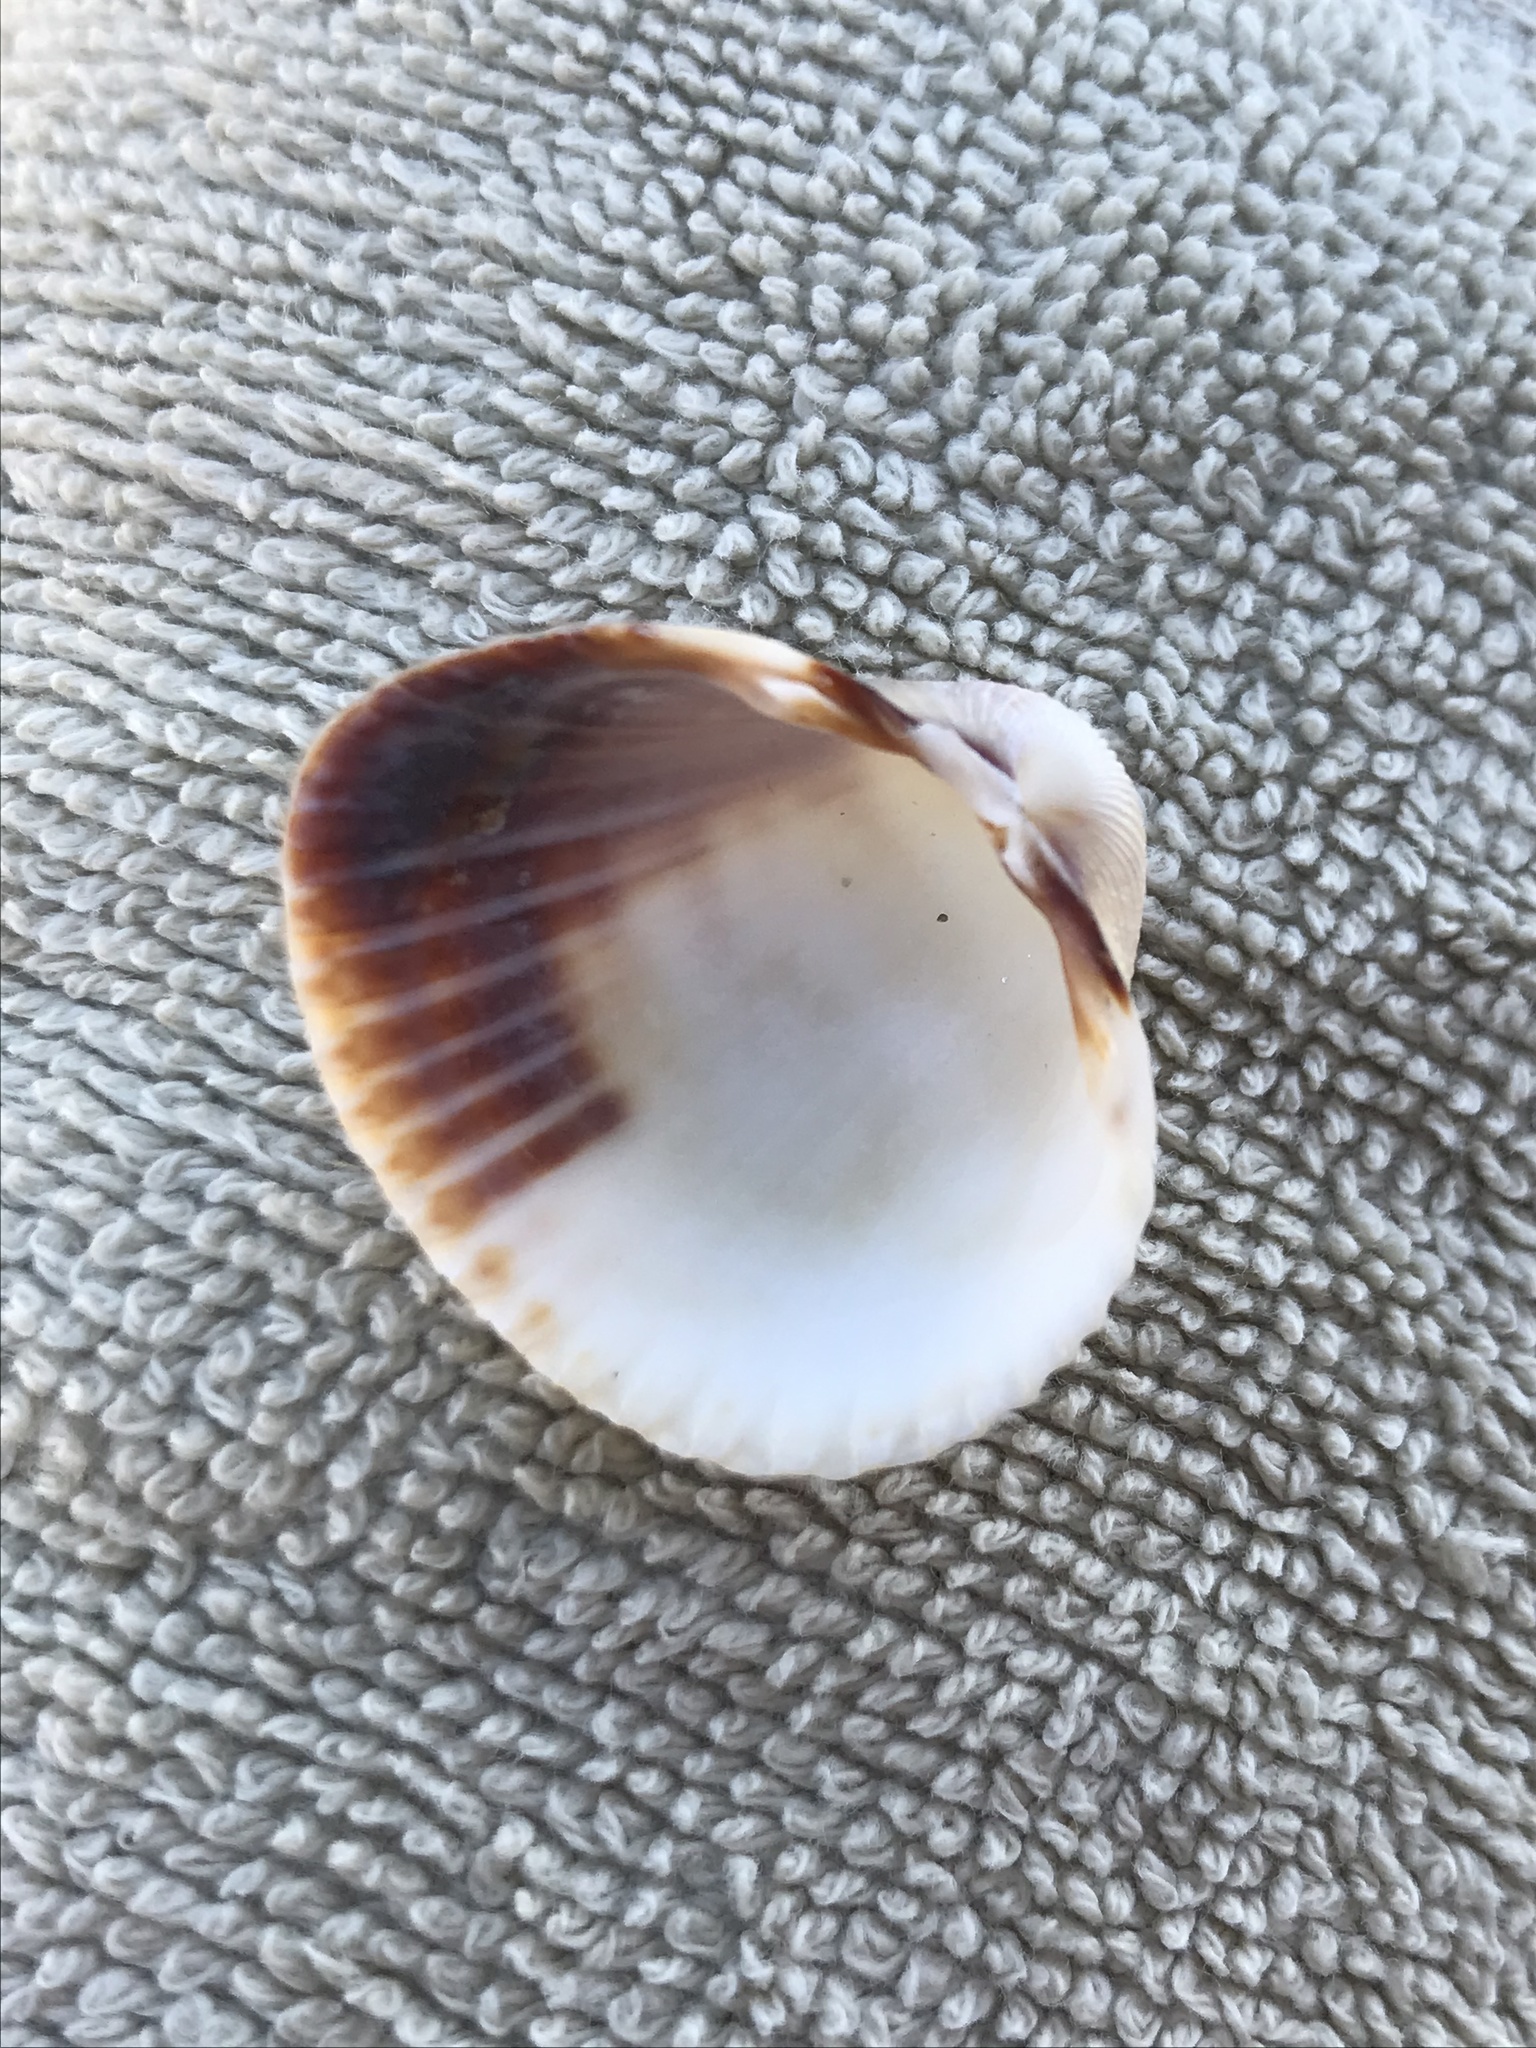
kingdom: Animalia
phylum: Mollusca
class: Bivalvia
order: Cardiida
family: Cardiidae
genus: Cerastoderma
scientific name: Cerastoderma glaucum
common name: Lagoon cockle
